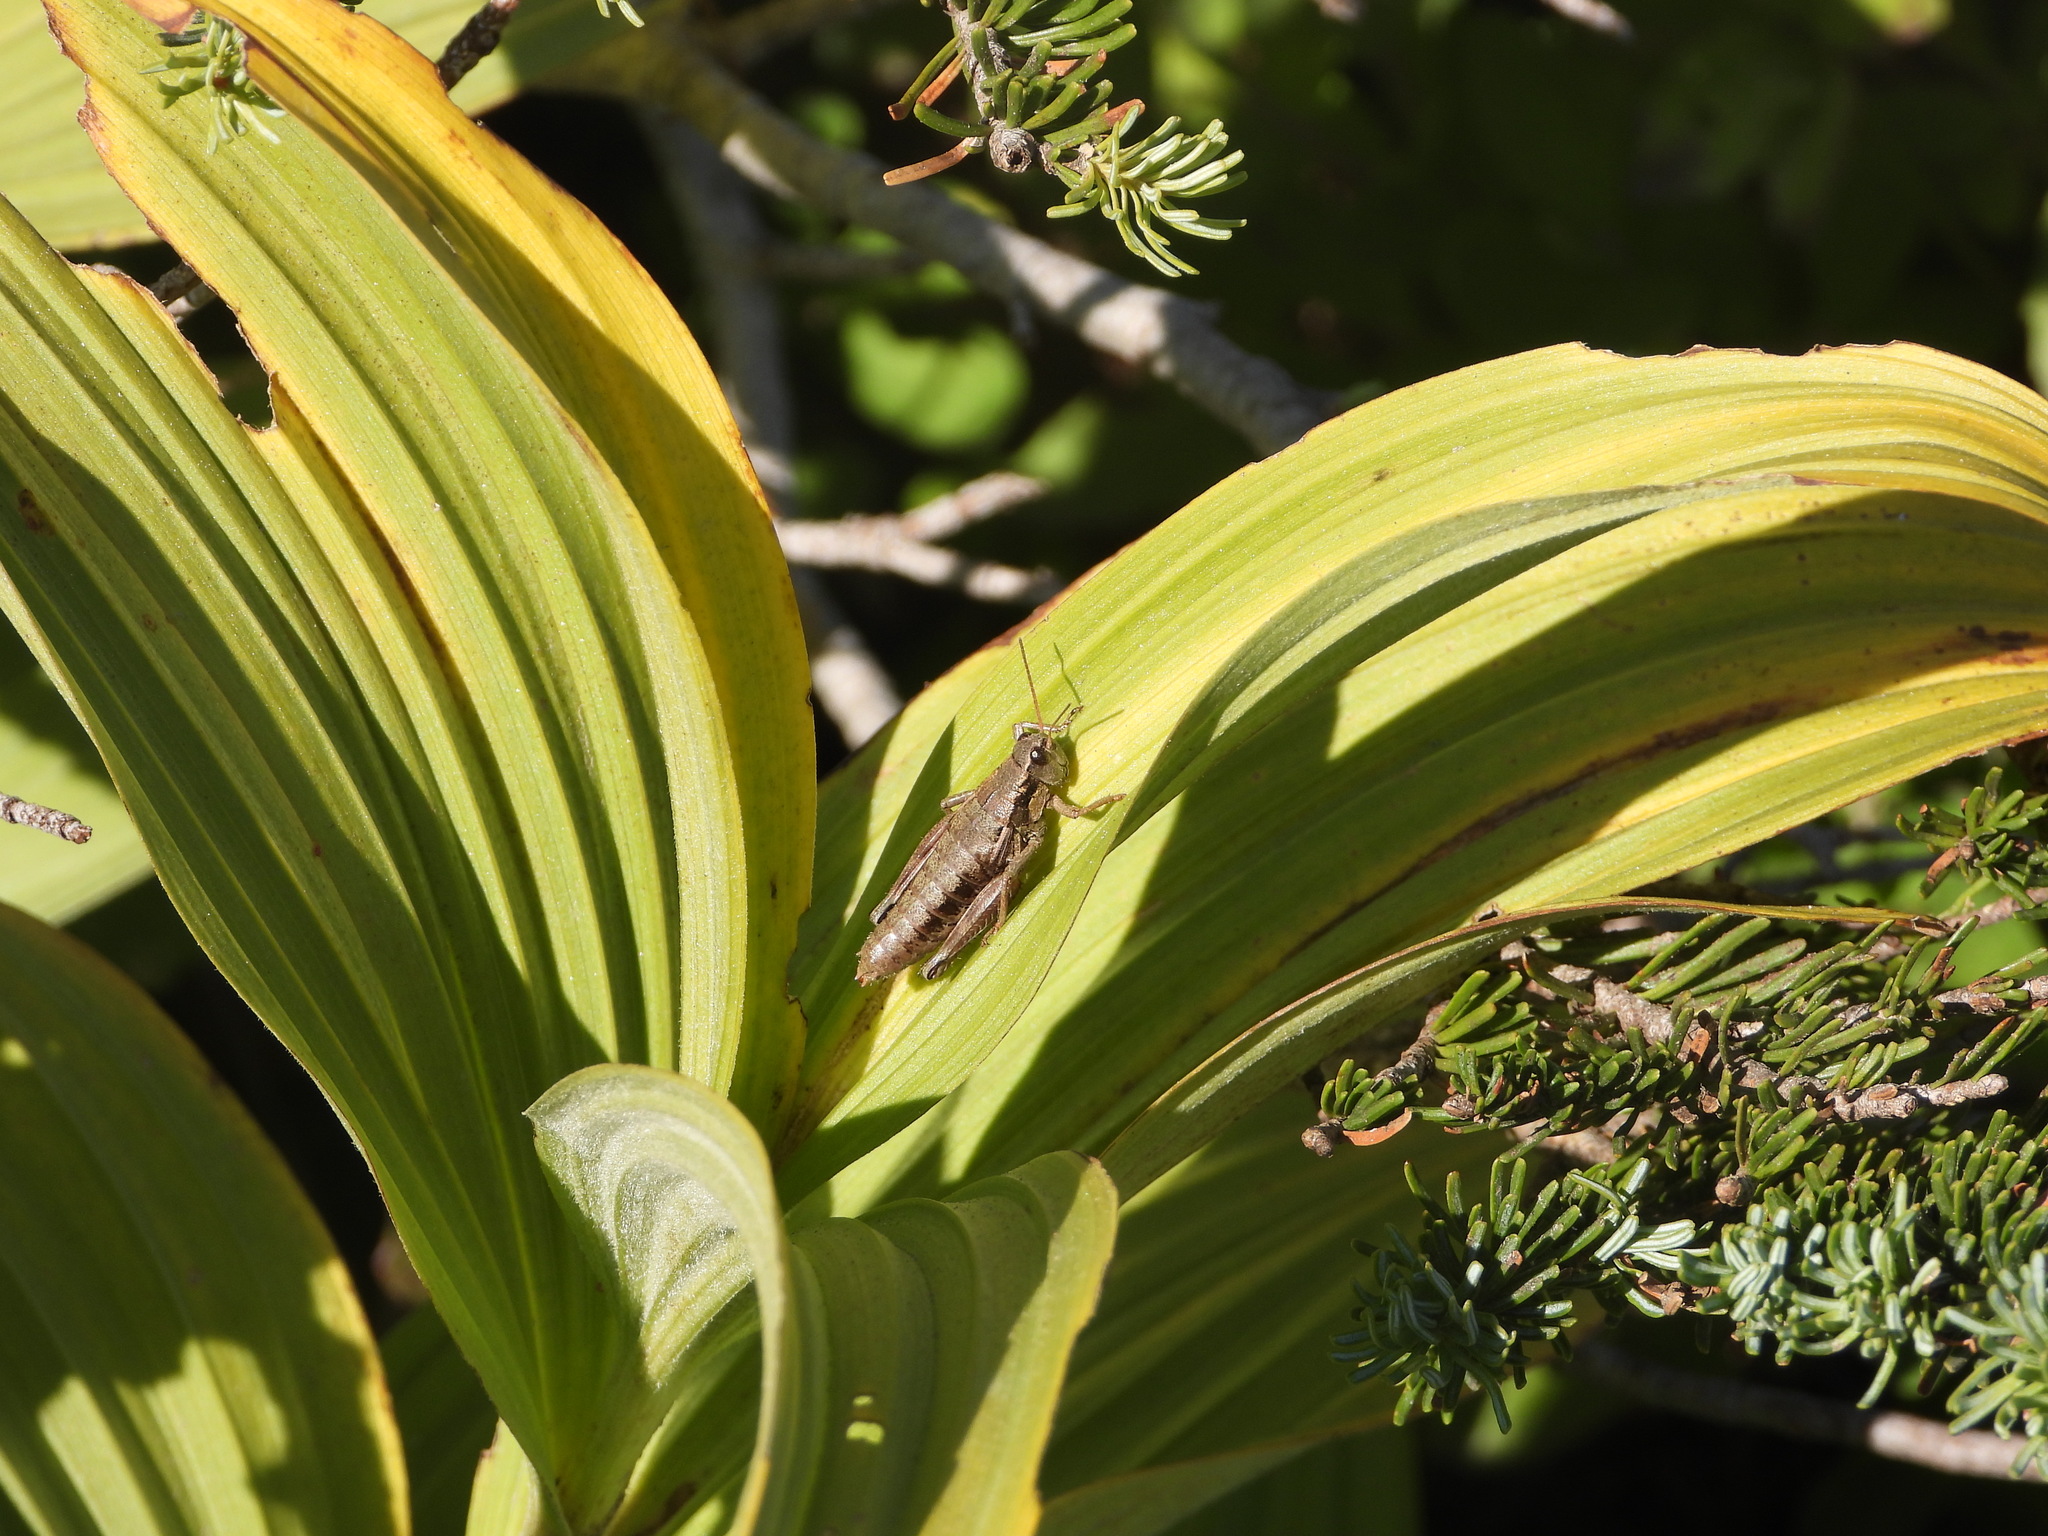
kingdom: Animalia
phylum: Arthropoda
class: Insecta
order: Orthoptera
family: Acrididae
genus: Prumnacris
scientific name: Prumnacris rainierensis
